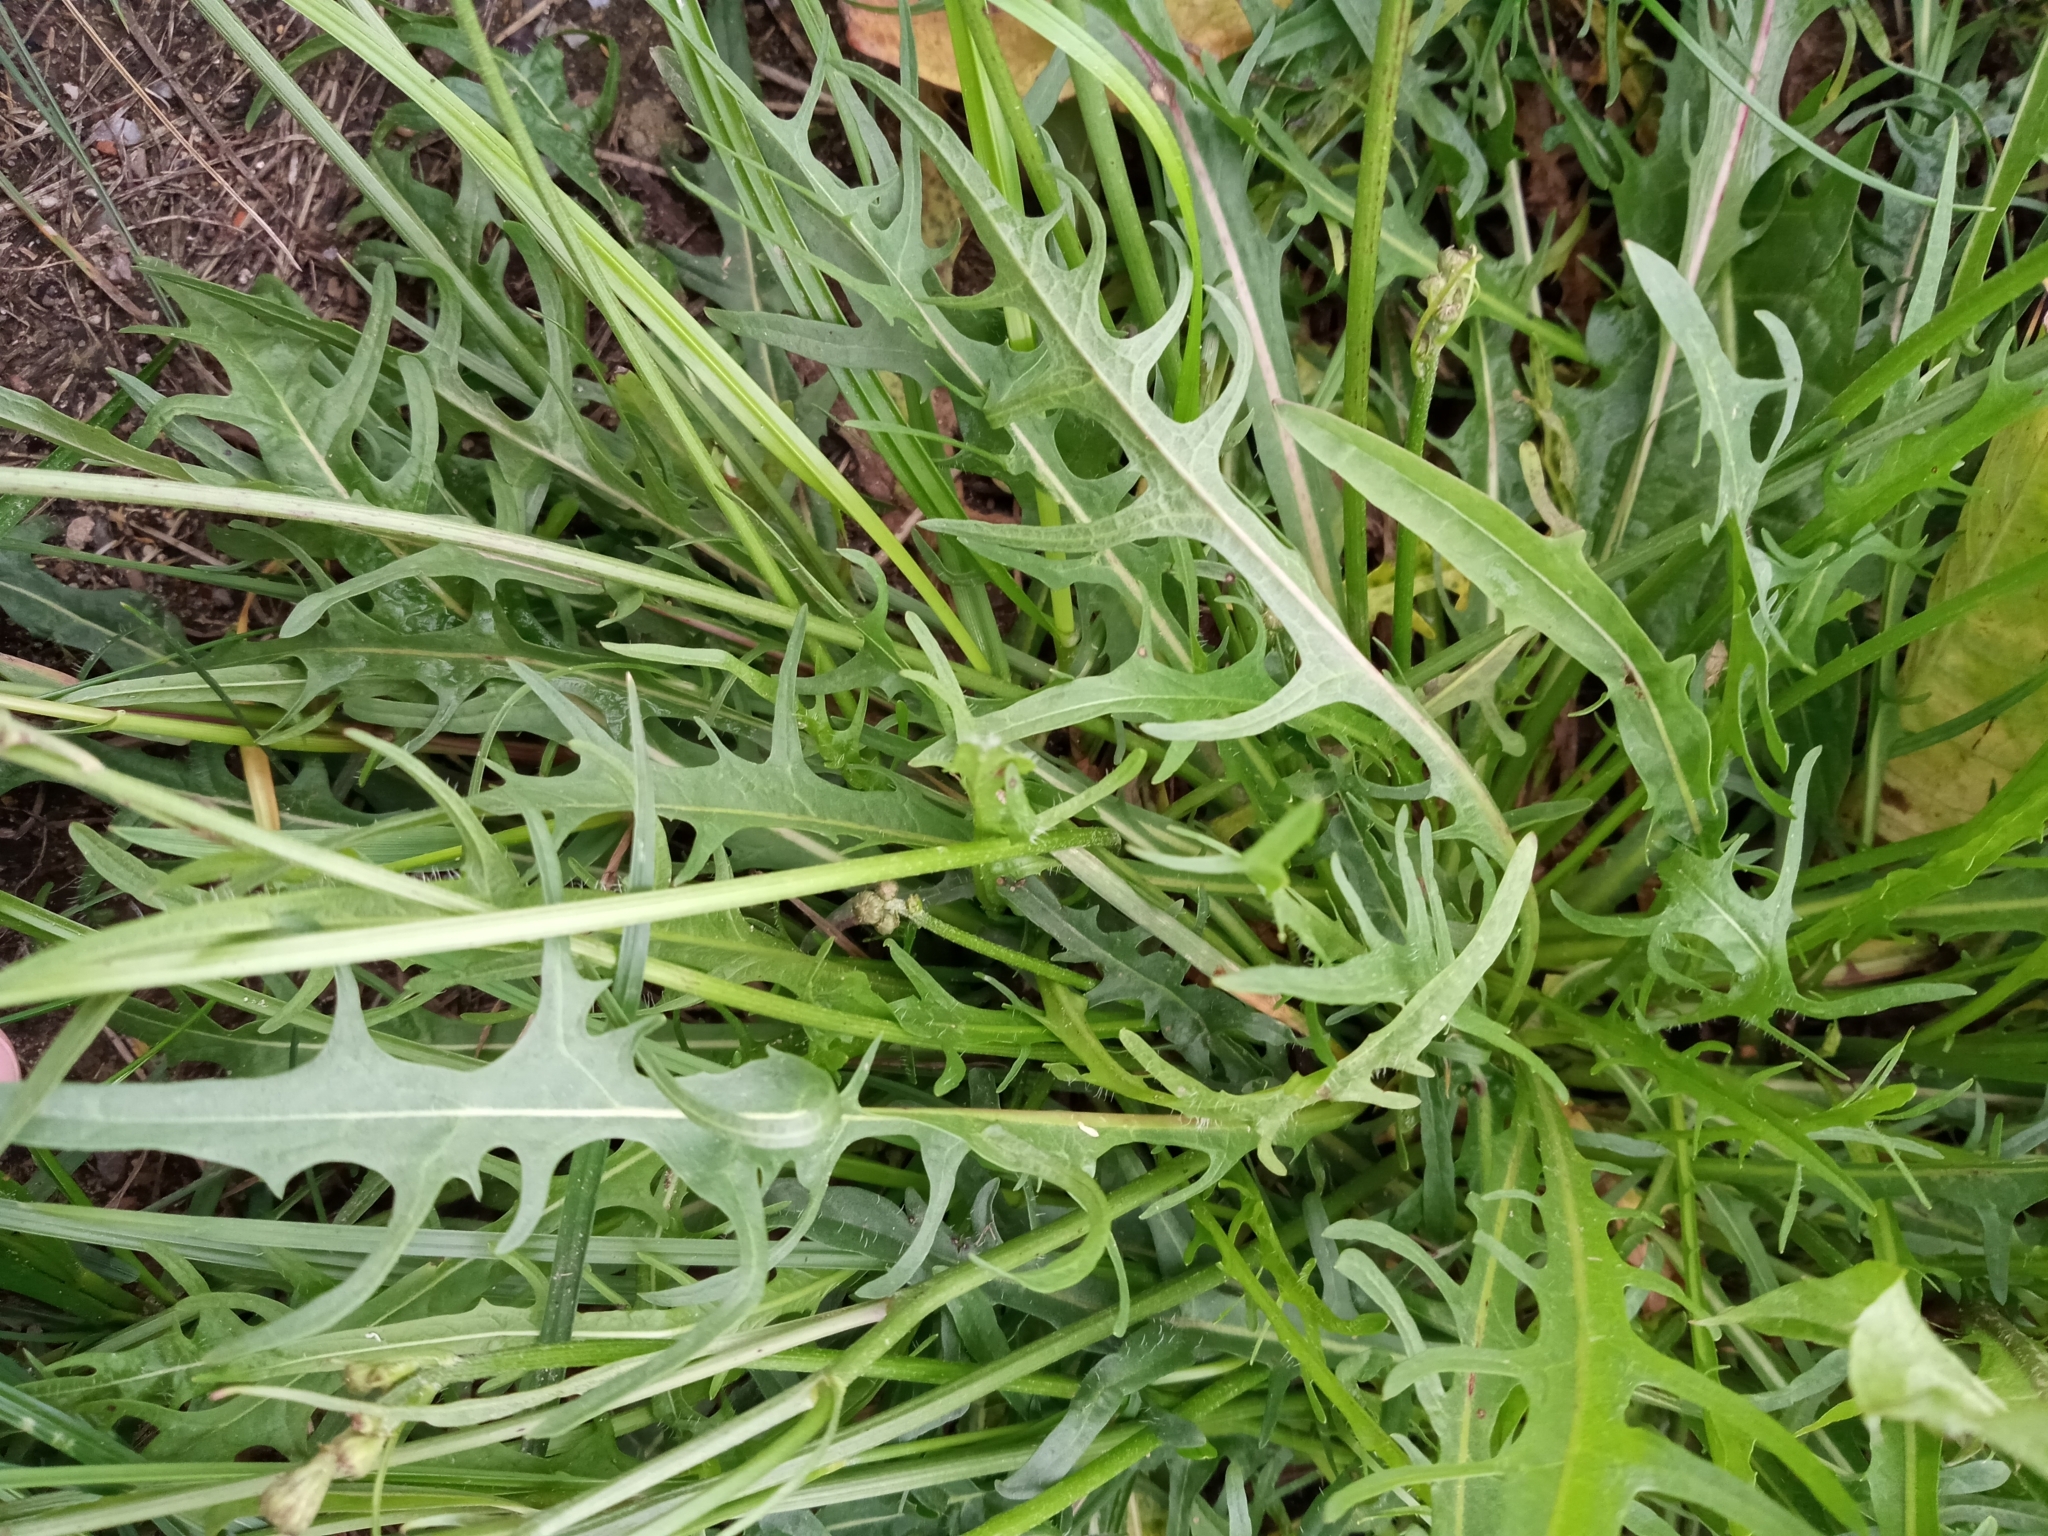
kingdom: Plantae
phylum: Tracheophyta
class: Magnoliopsida
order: Asterales
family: Asteraceae
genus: Scorzoneroides
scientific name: Scorzoneroides autumnalis
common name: Autumn hawkbit
